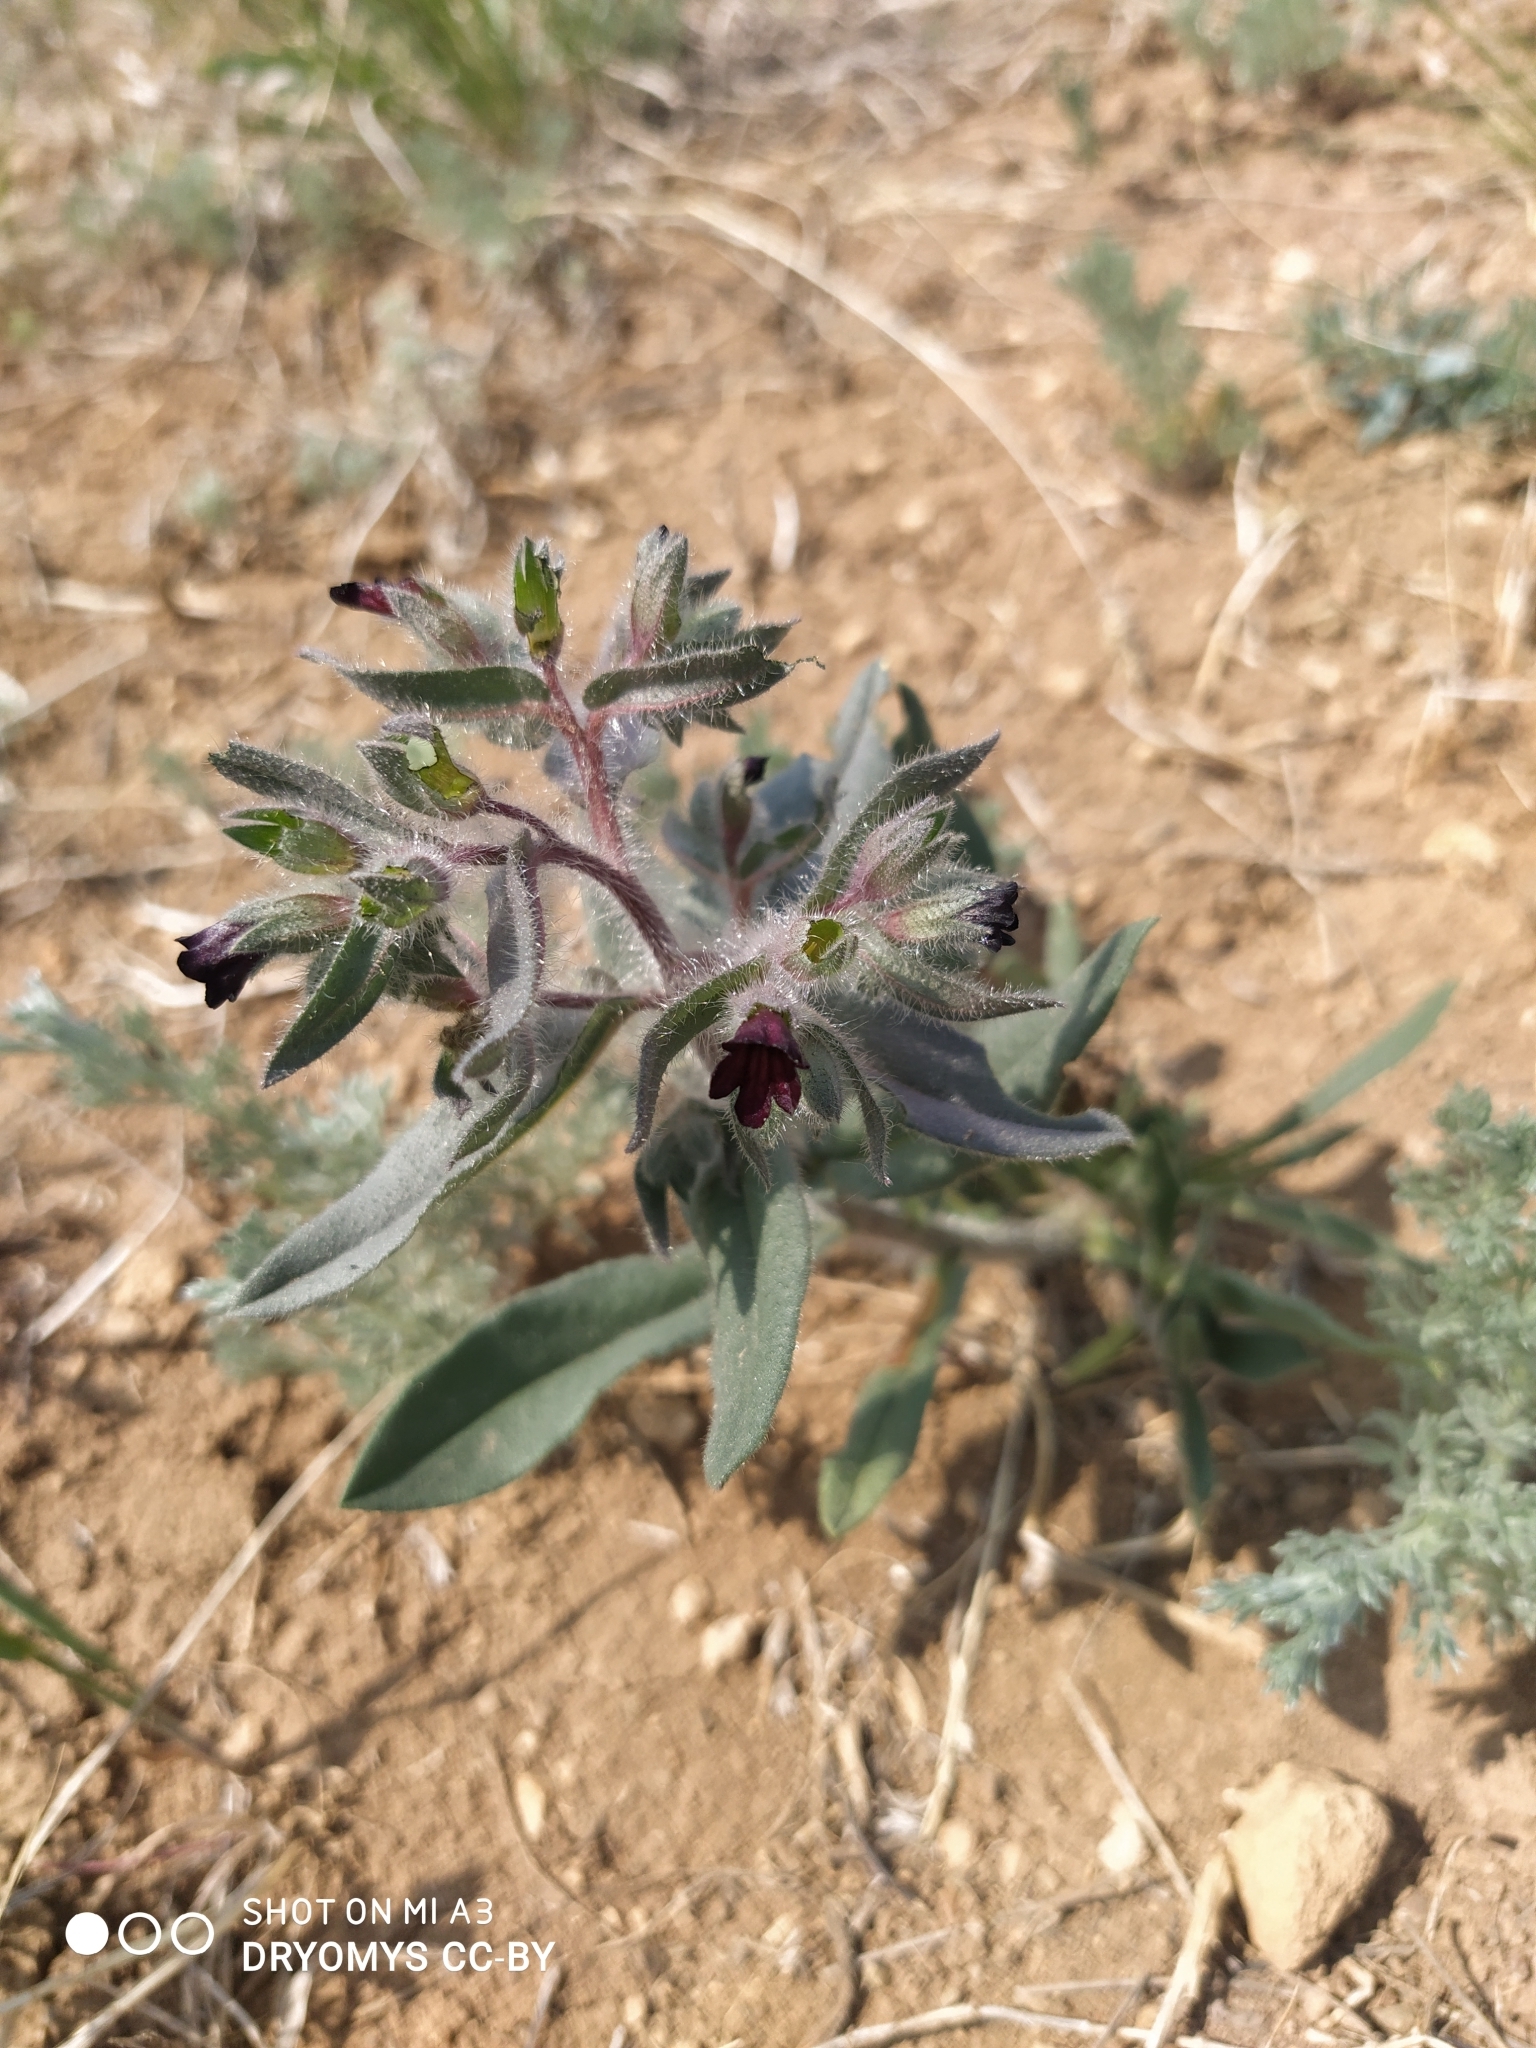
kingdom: Plantae
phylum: Tracheophyta
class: Magnoliopsida
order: Boraginales
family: Boraginaceae
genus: Nonea
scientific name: Nonea pulla
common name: Brown nonea
